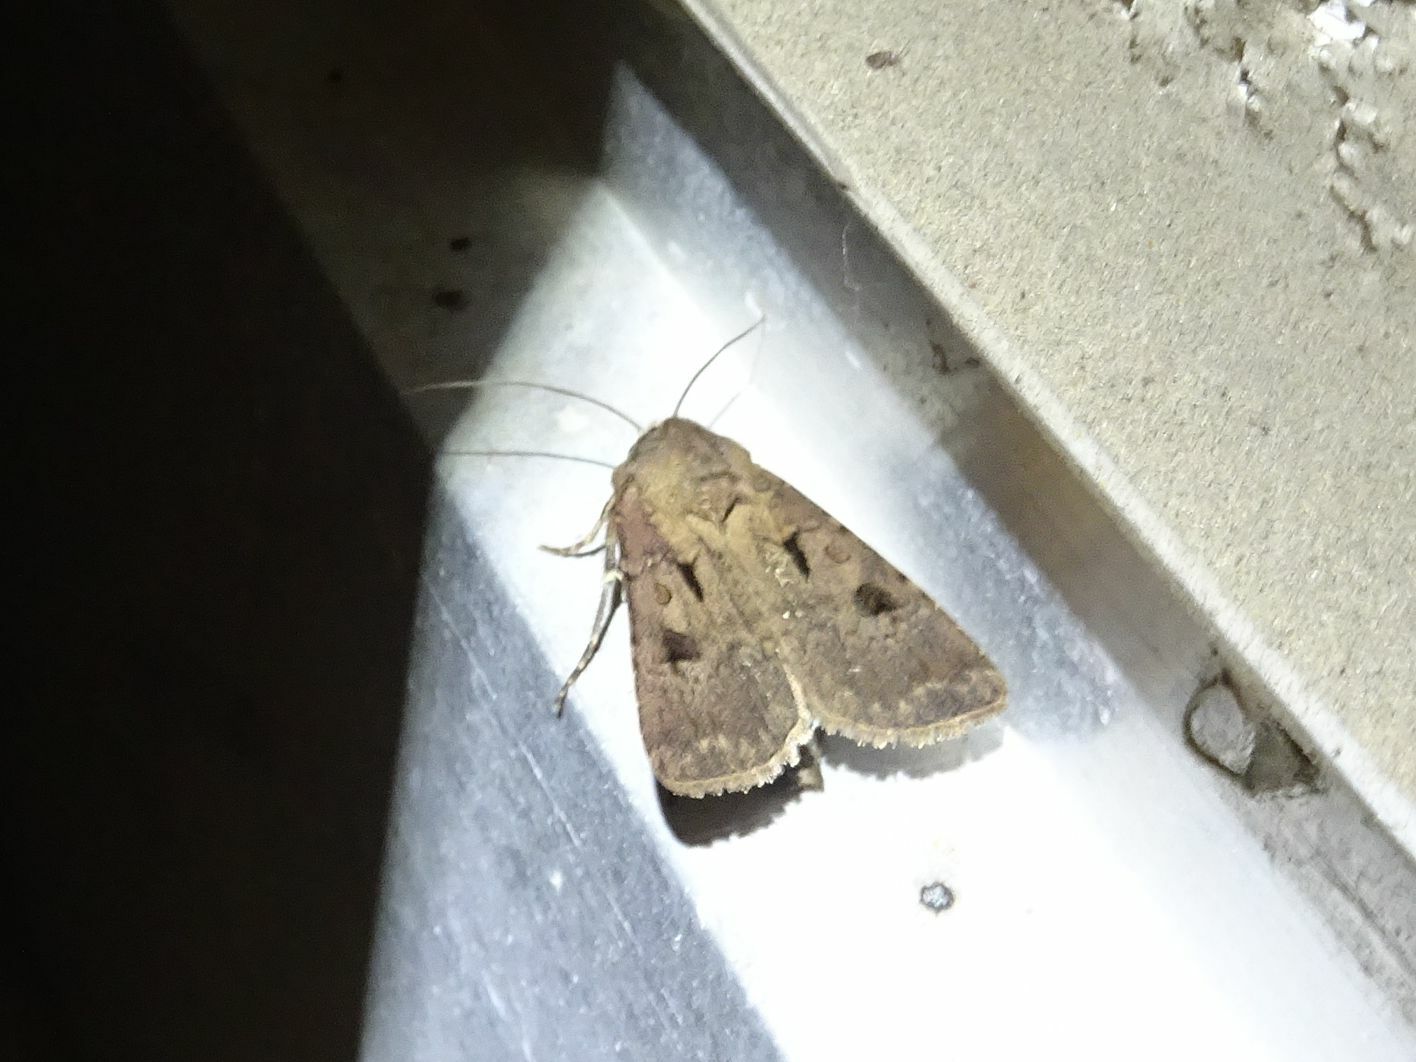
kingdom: Animalia
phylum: Arthropoda
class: Insecta
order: Lepidoptera
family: Noctuidae
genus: Agrotis
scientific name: Agrotis exclamationis
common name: Heart and dart
